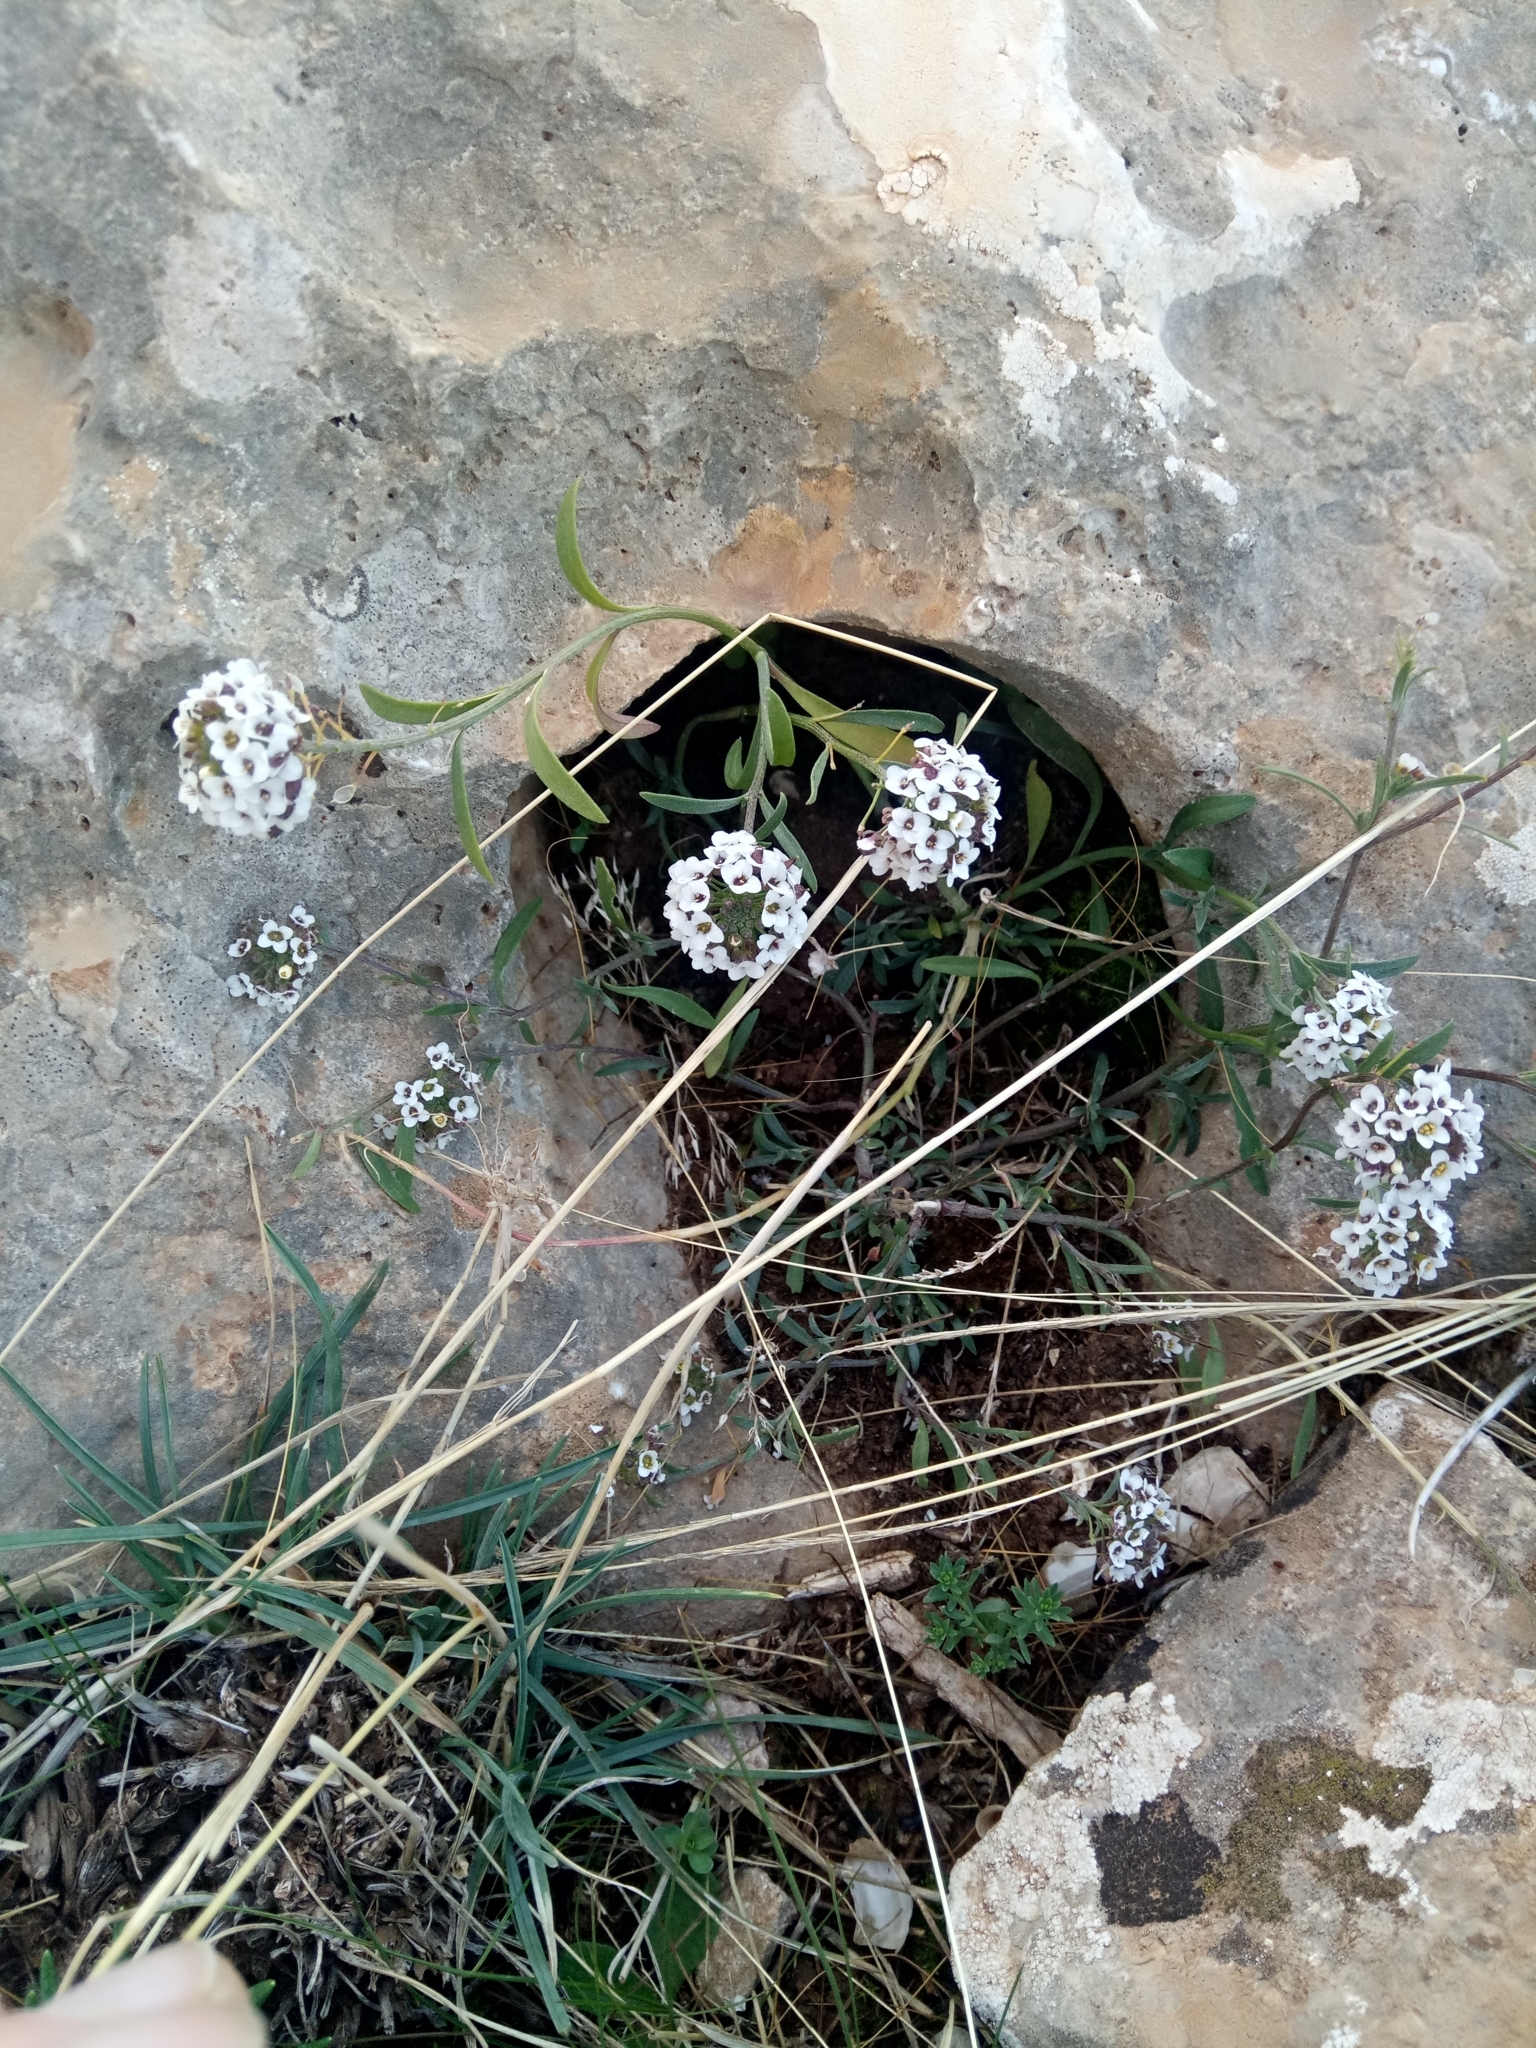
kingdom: Plantae
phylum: Tracheophyta
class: Magnoliopsida
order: Brassicales
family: Brassicaceae
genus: Lobularia
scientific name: Lobularia maritima
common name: Sweet alison
